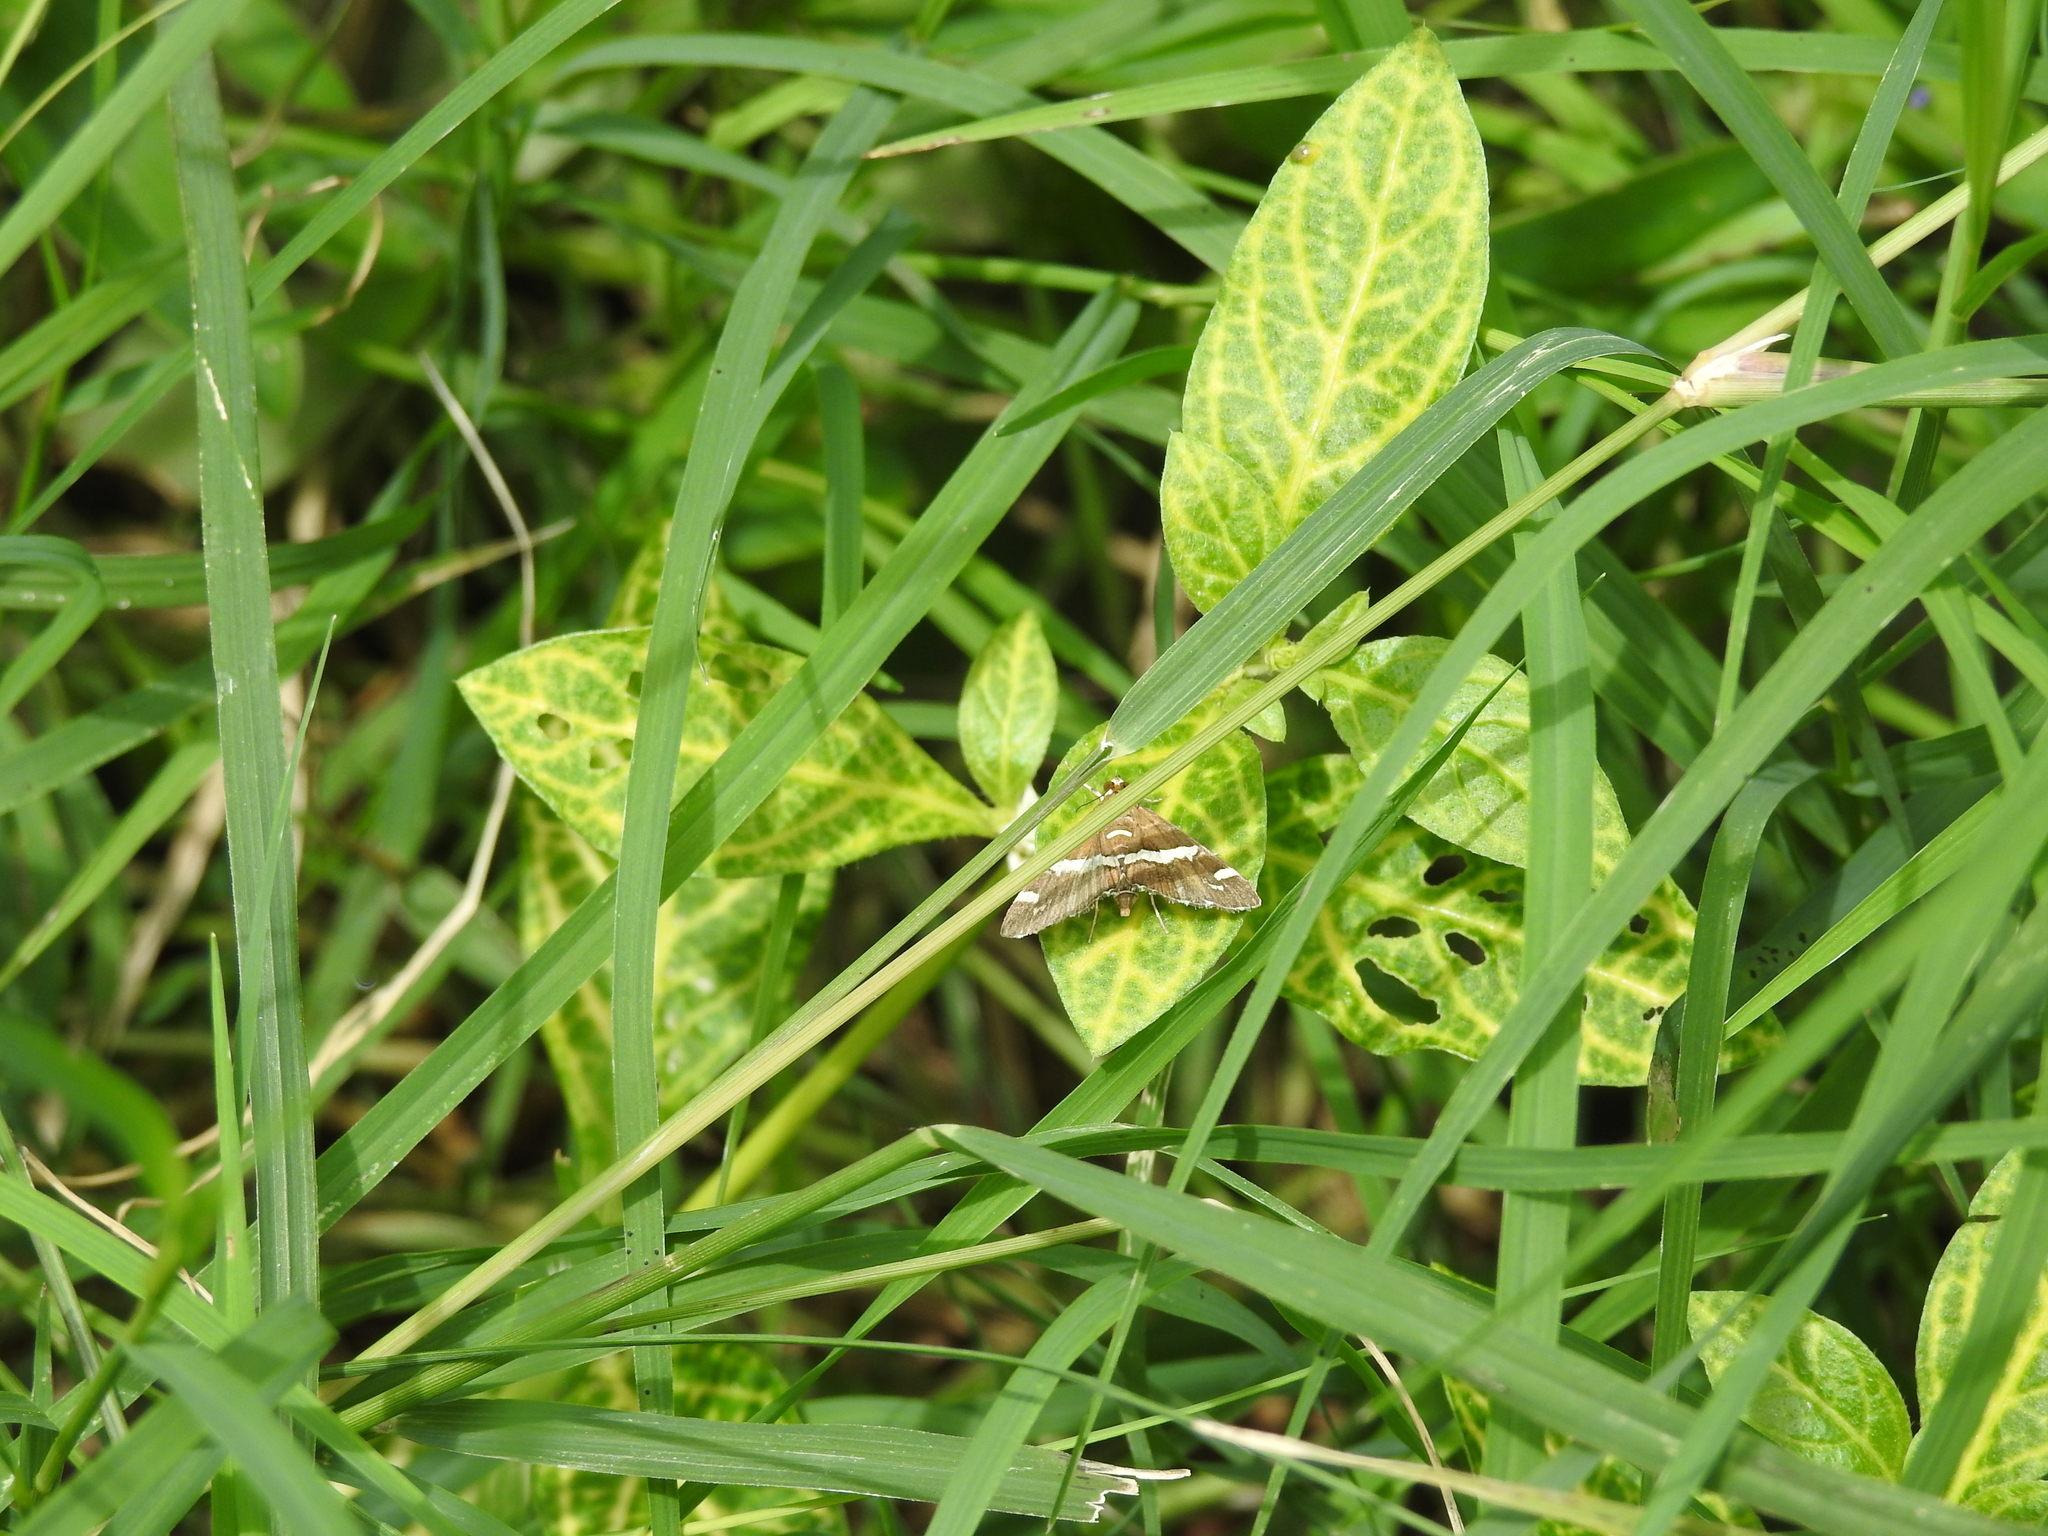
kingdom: Animalia
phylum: Arthropoda
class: Insecta
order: Lepidoptera
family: Crambidae
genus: Spoladea
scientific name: Spoladea recurvalis
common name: Beet webworm moth
